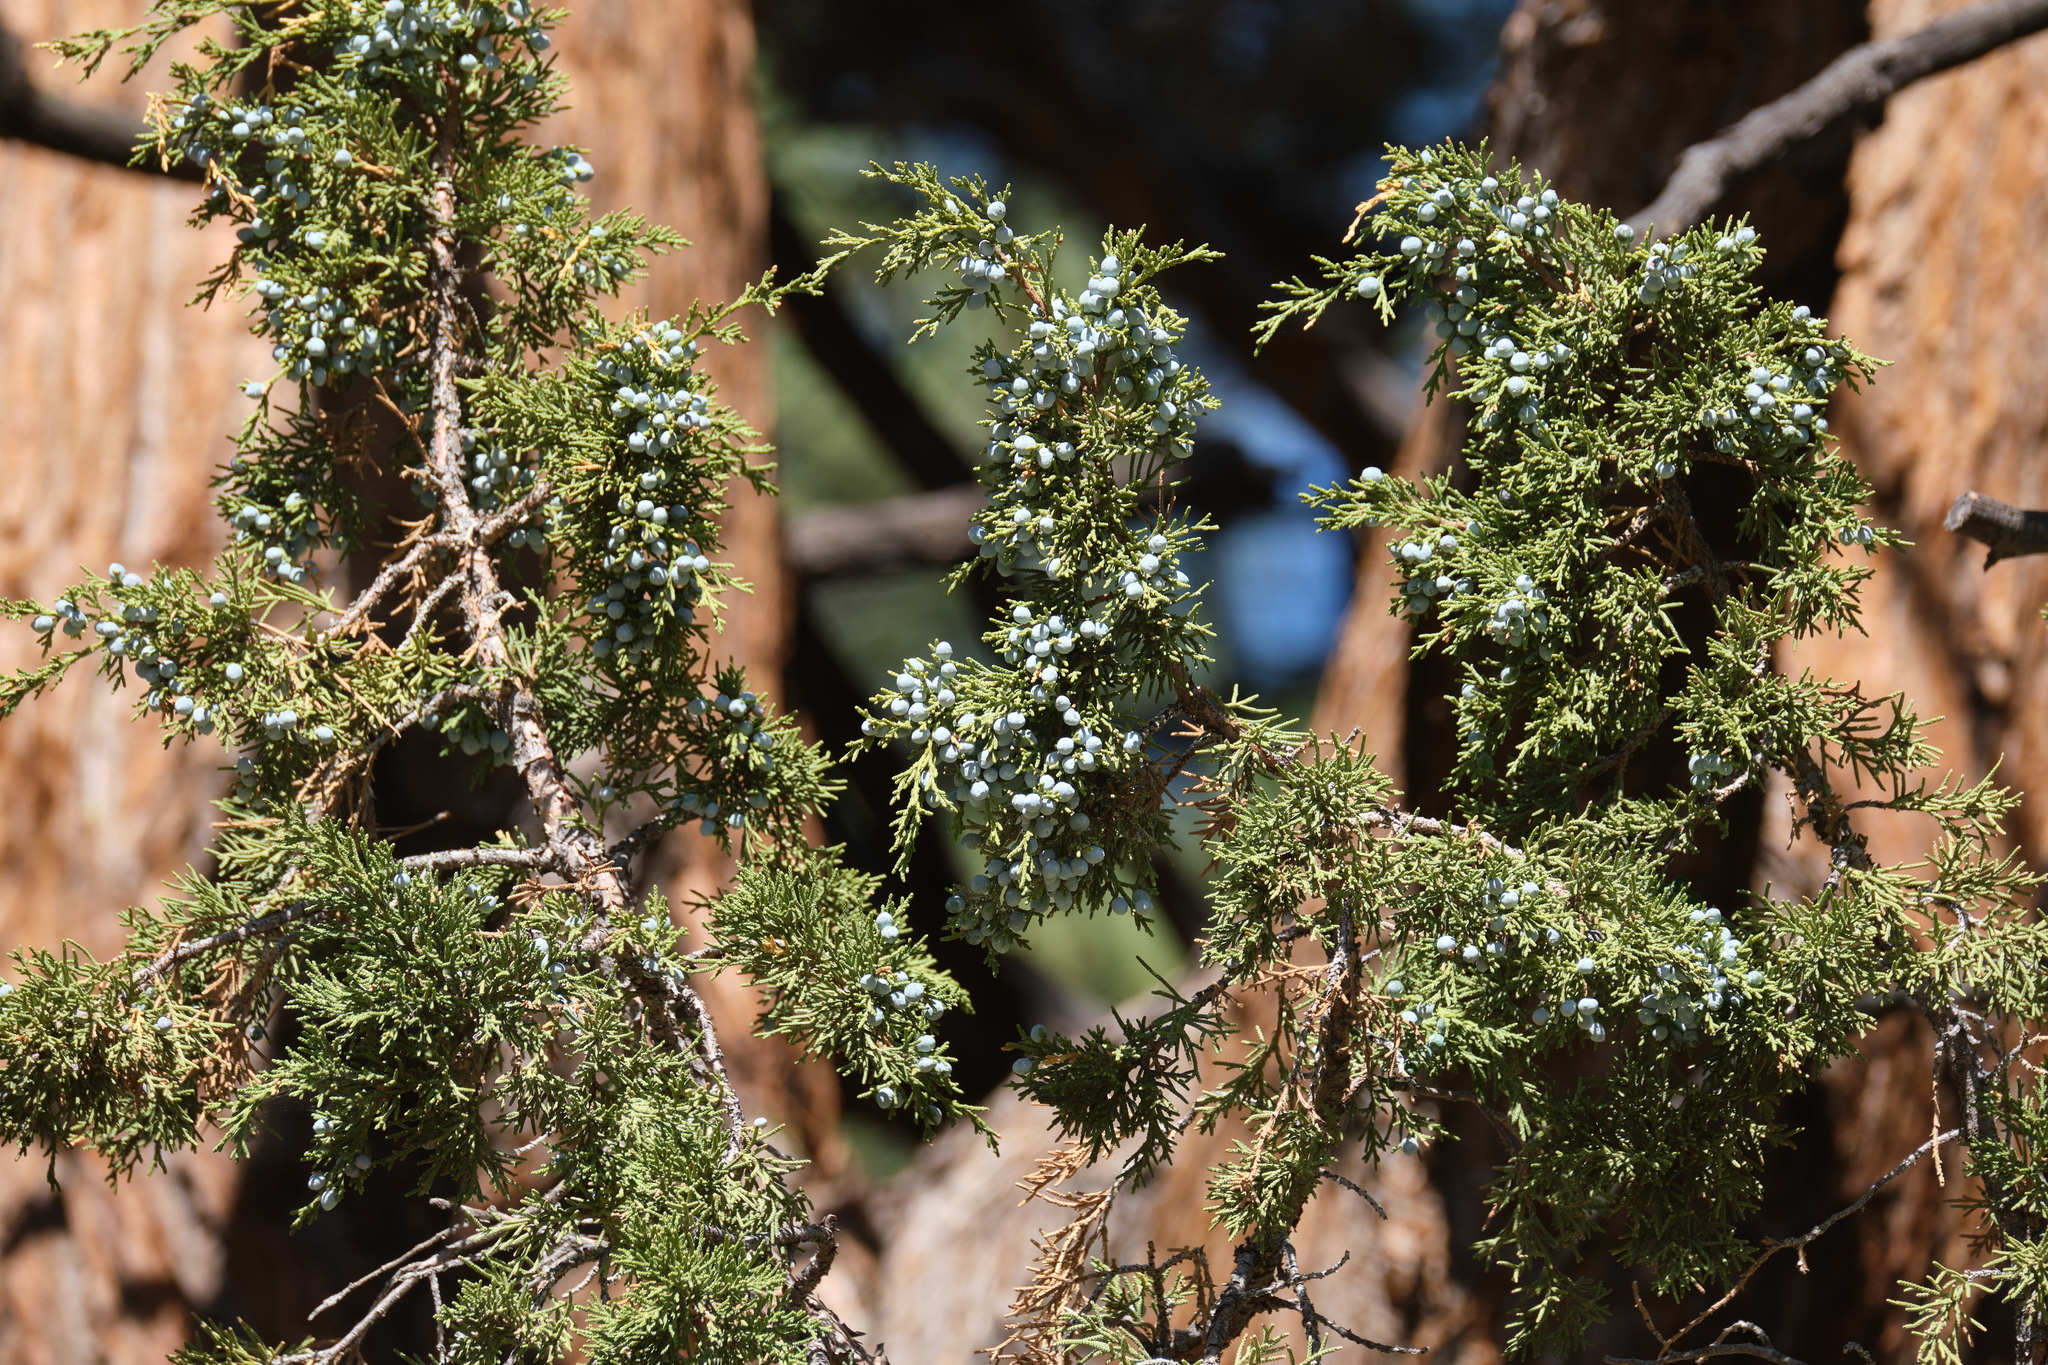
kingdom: Plantae
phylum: Tracheophyta
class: Pinopsida
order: Pinales
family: Cupressaceae
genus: Juniperus
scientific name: Juniperus occidentalis
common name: Western juniper
